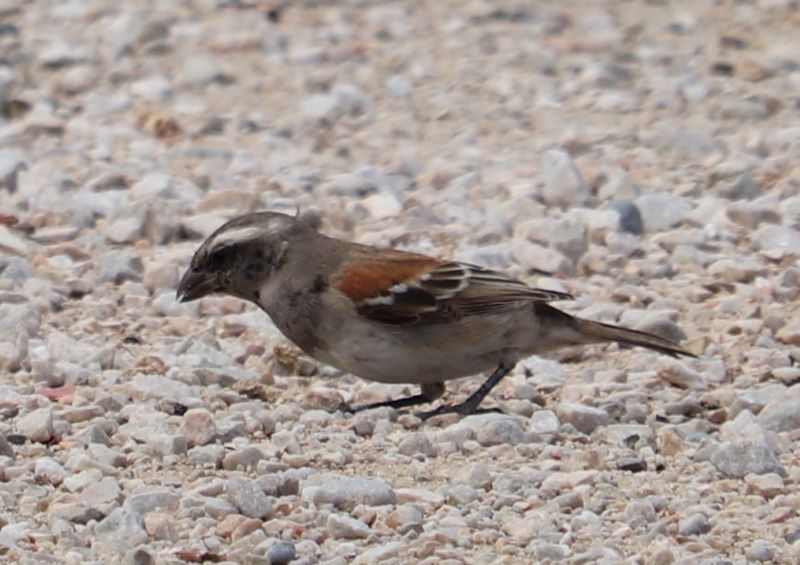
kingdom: Animalia
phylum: Chordata
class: Aves
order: Passeriformes
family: Passeridae
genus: Passer
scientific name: Passer melanurus
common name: Cape sparrow
